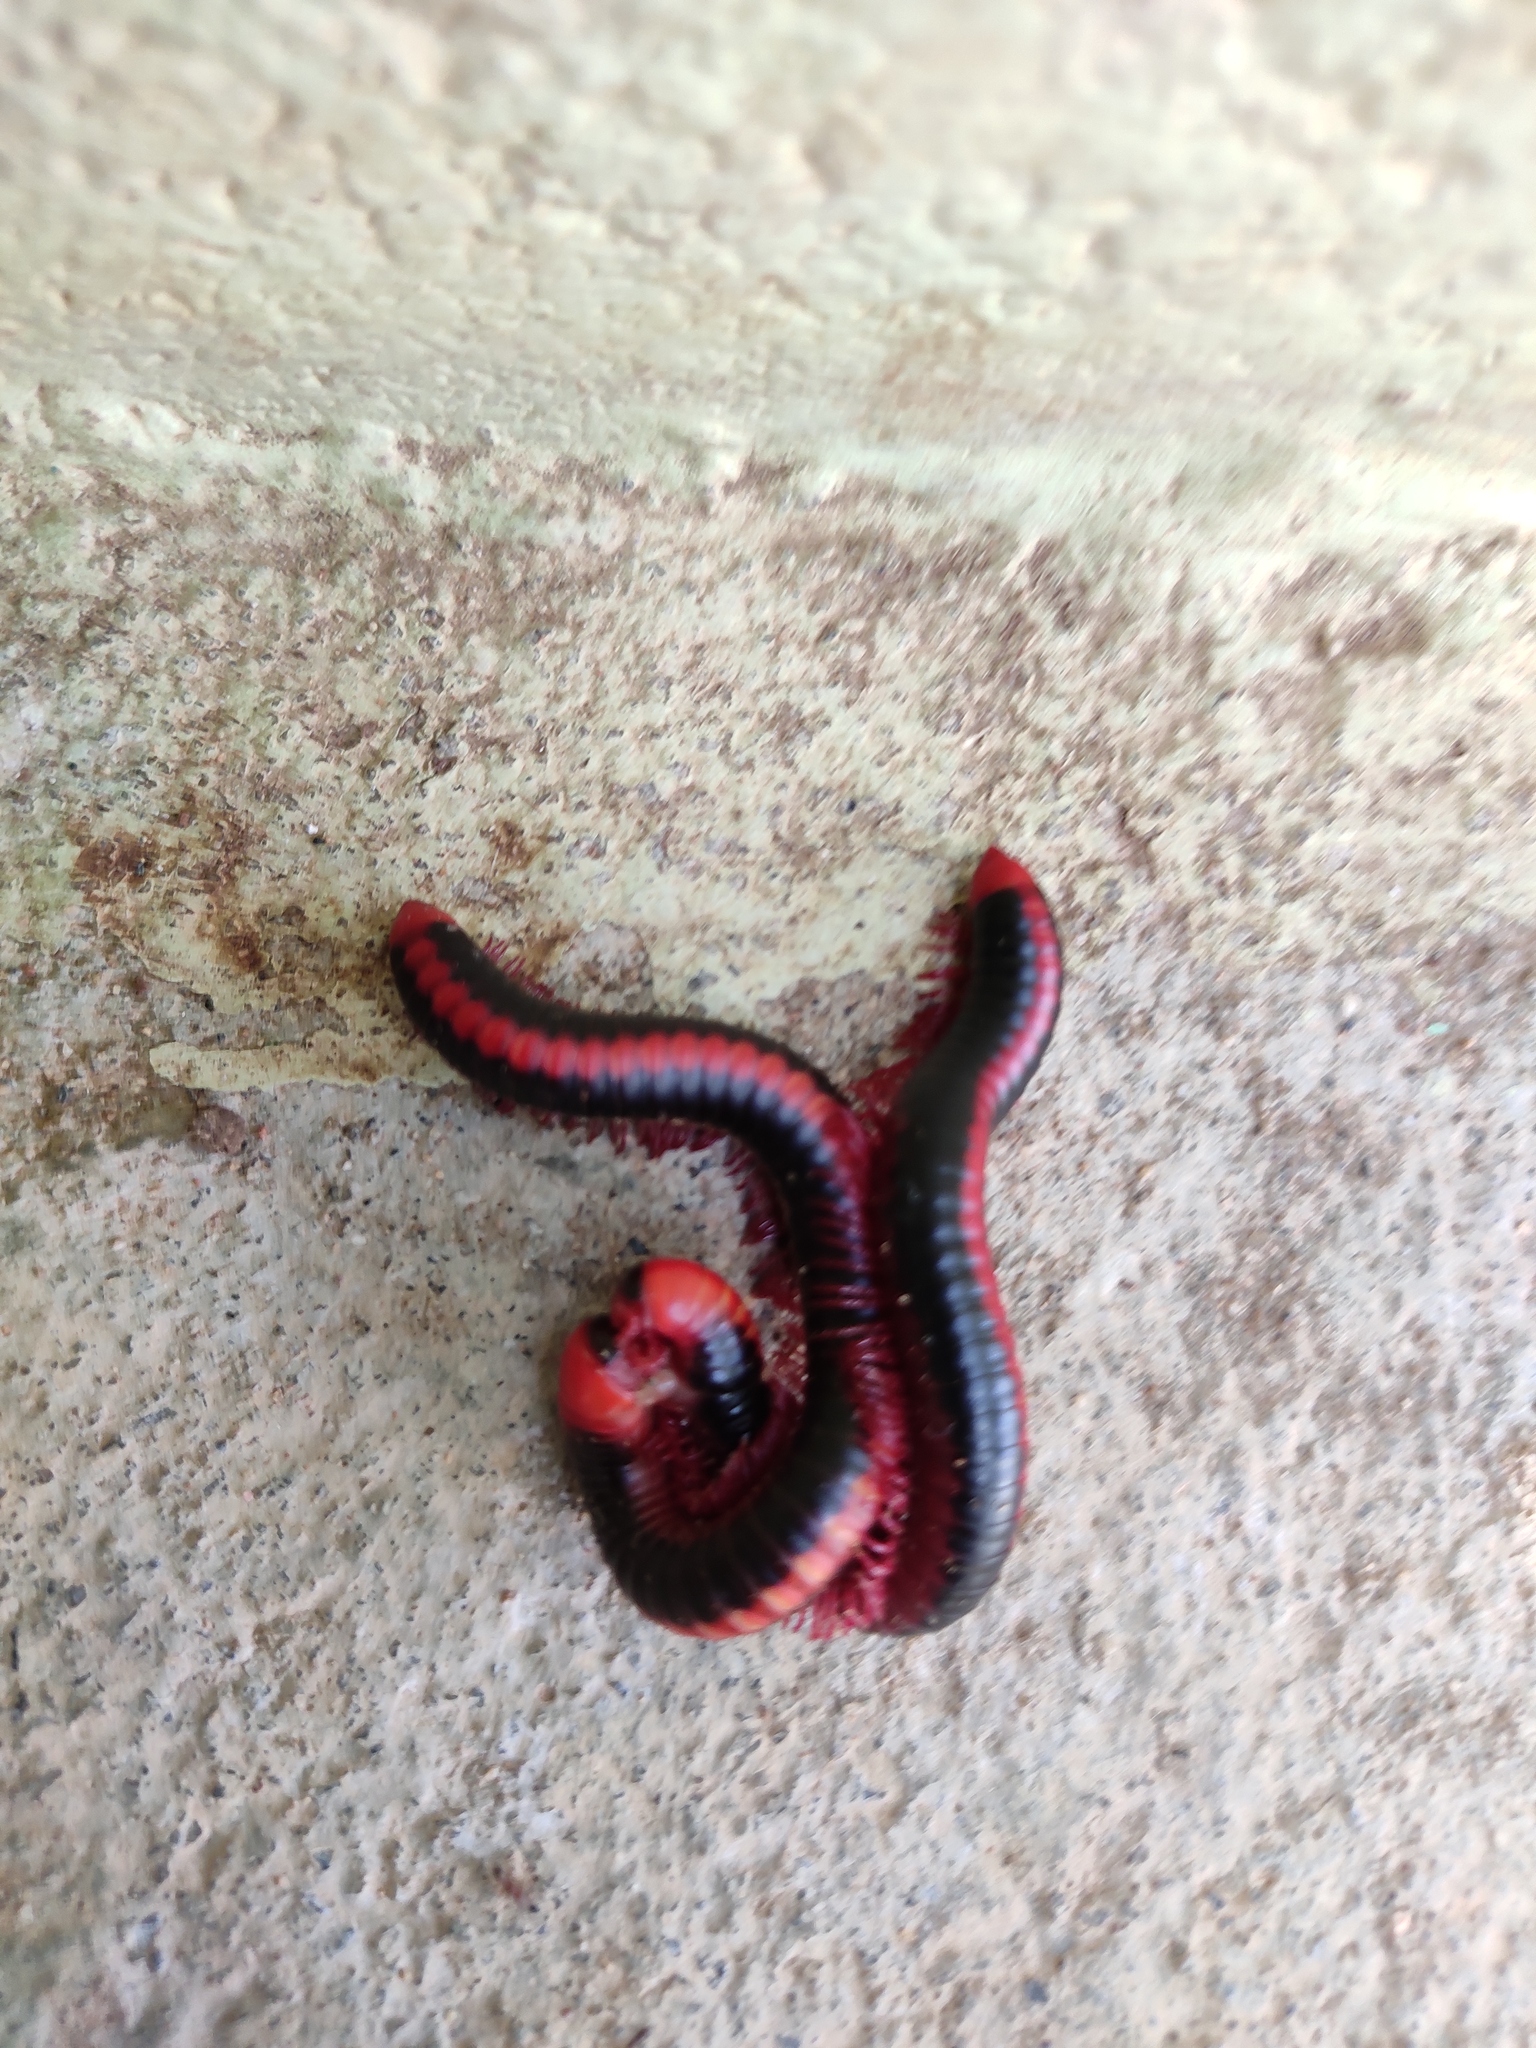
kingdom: Animalia
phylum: Arthropoda
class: Diplopoda
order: Spirobolida
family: Pachybolidae
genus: Xenobolus
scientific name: Xenobolus carnifex
